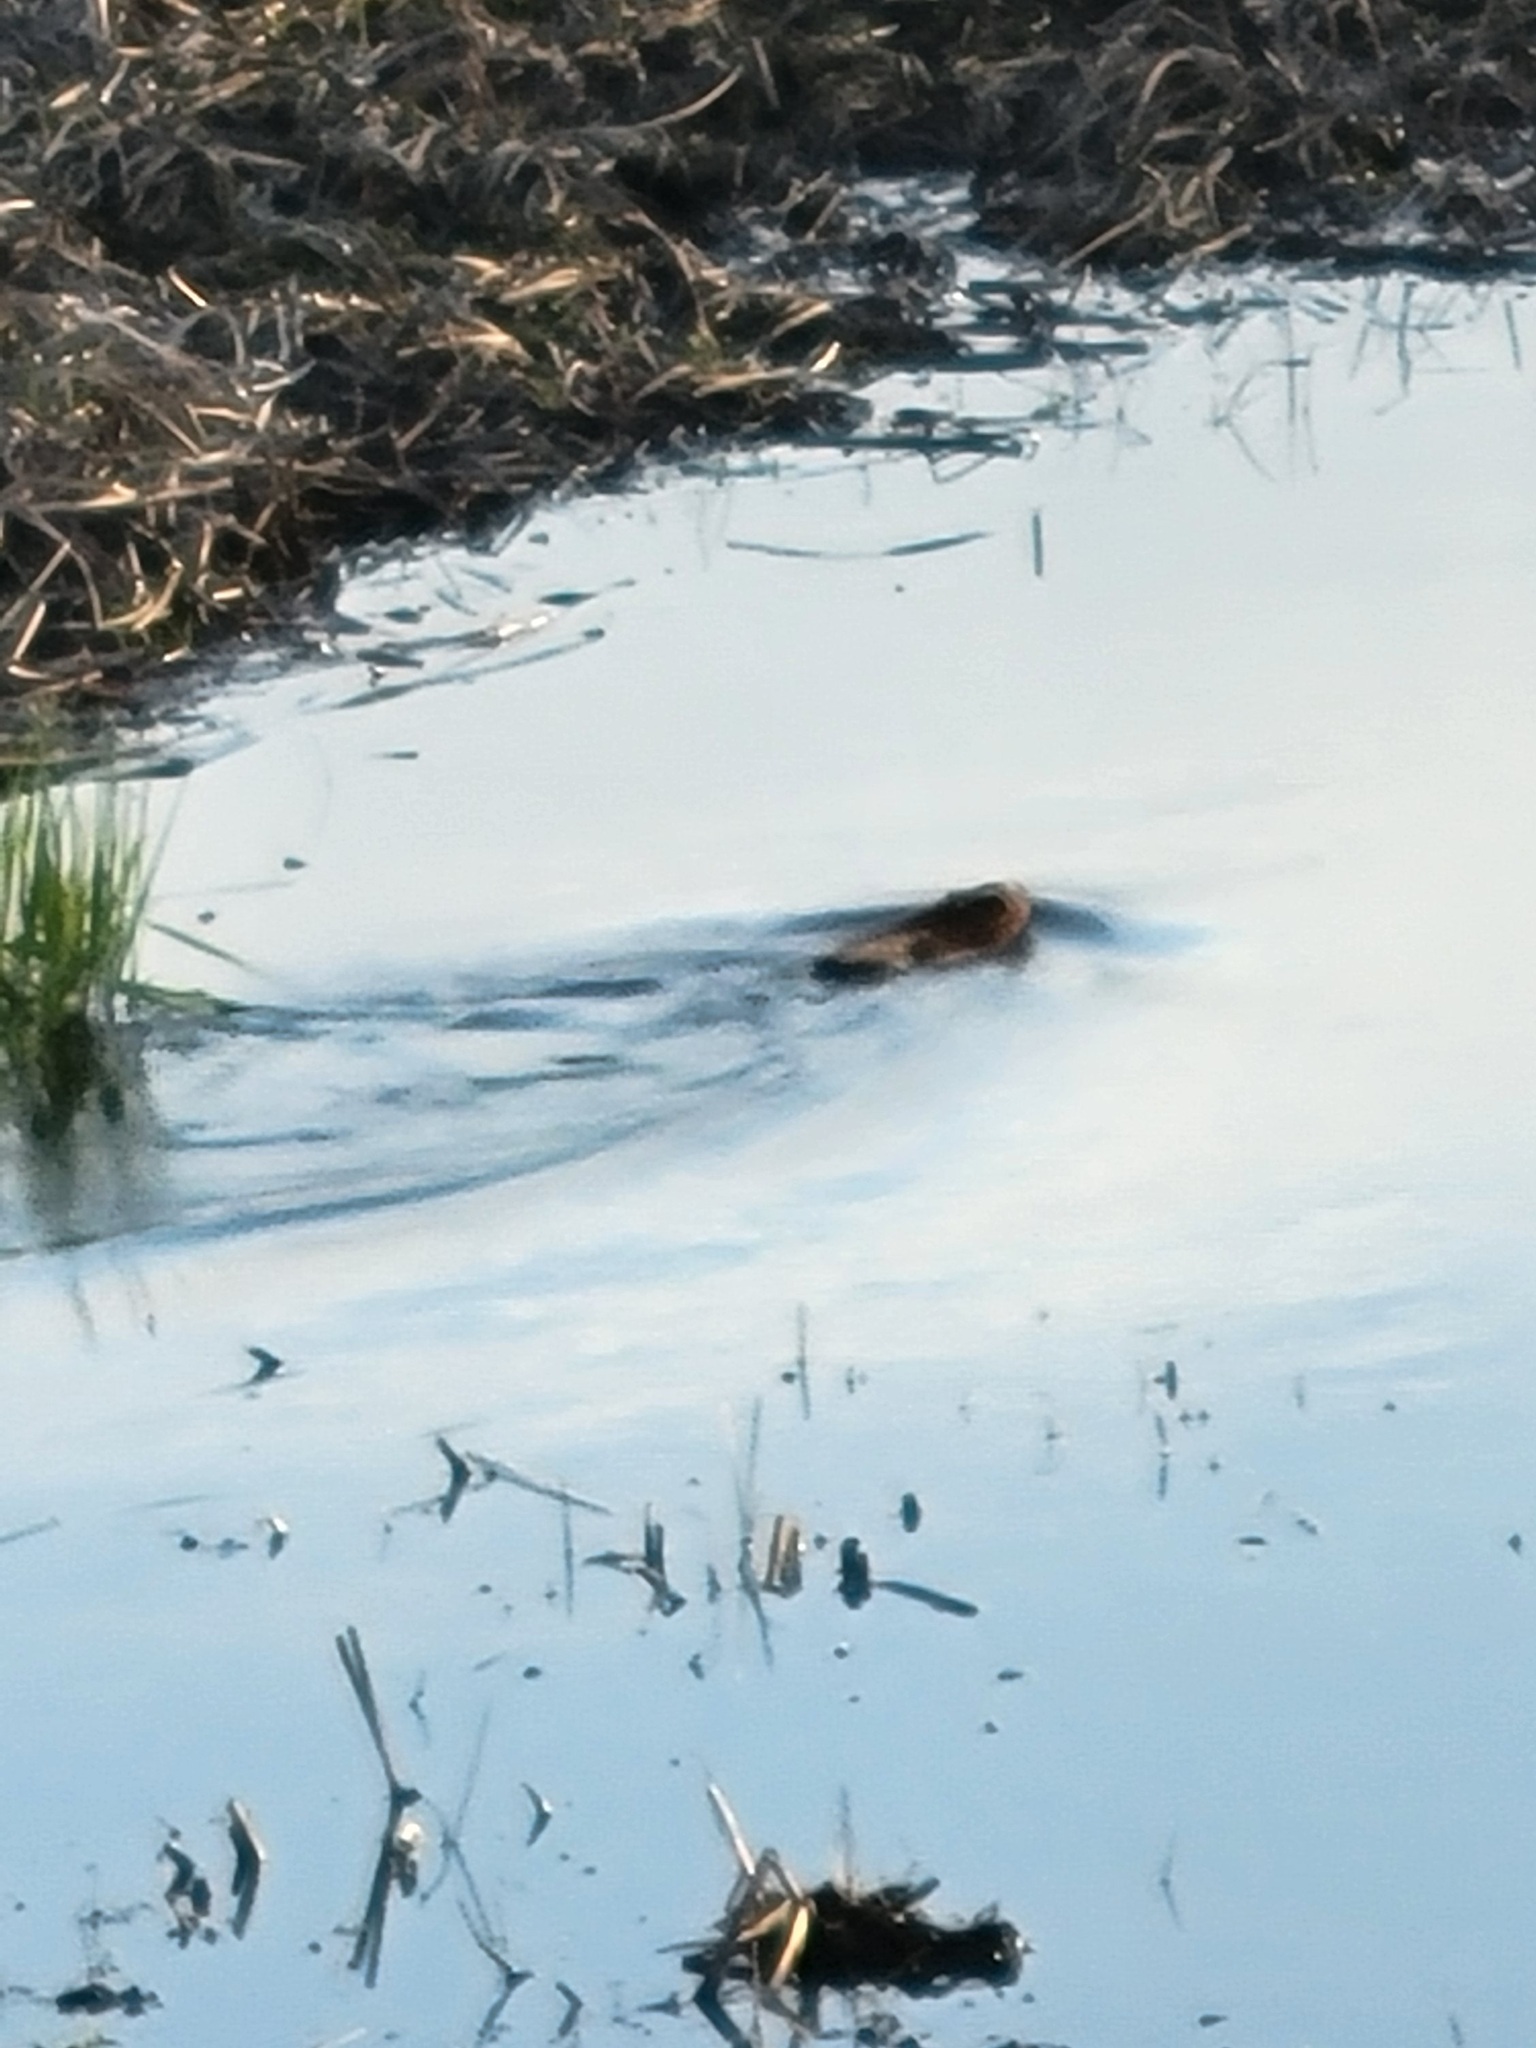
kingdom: Animalia
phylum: Chordata
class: Mammalia
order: Rodentia
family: Cricetidae
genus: Ondatra
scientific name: Ondatra zibethicus
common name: Muskrat
